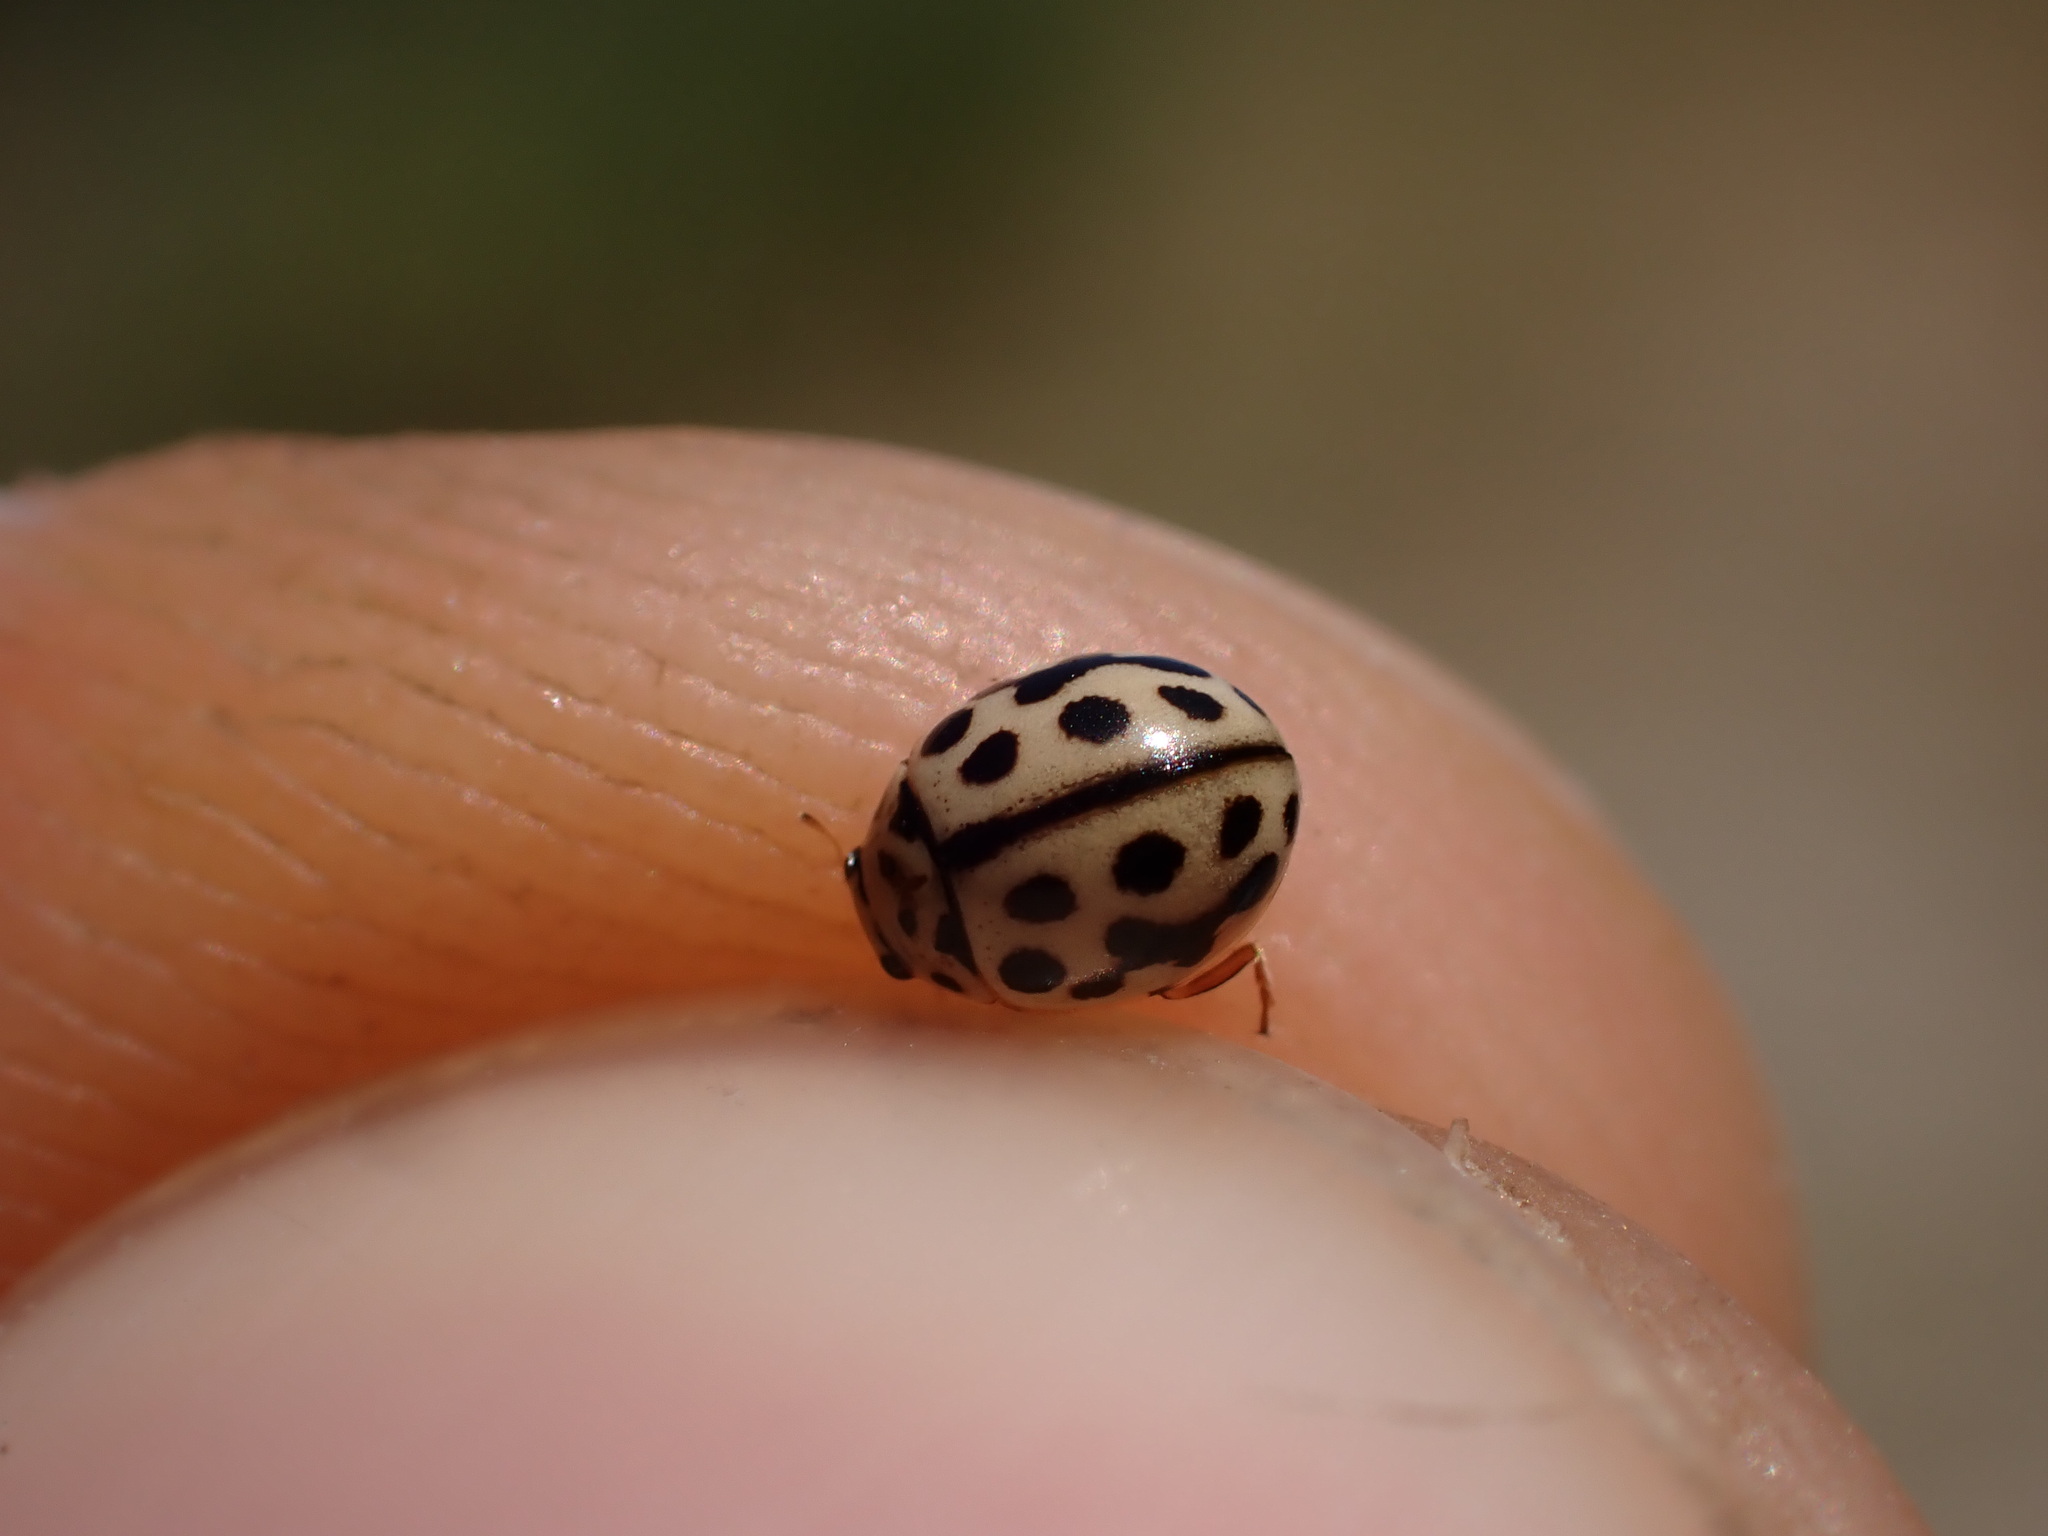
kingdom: Animalia
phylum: Arthropoda
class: Insecta
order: Coleoptera
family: Coccinellidae
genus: Tytthaspis
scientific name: Tytthaspis sedecimpunctata
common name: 16-spot ladybird
